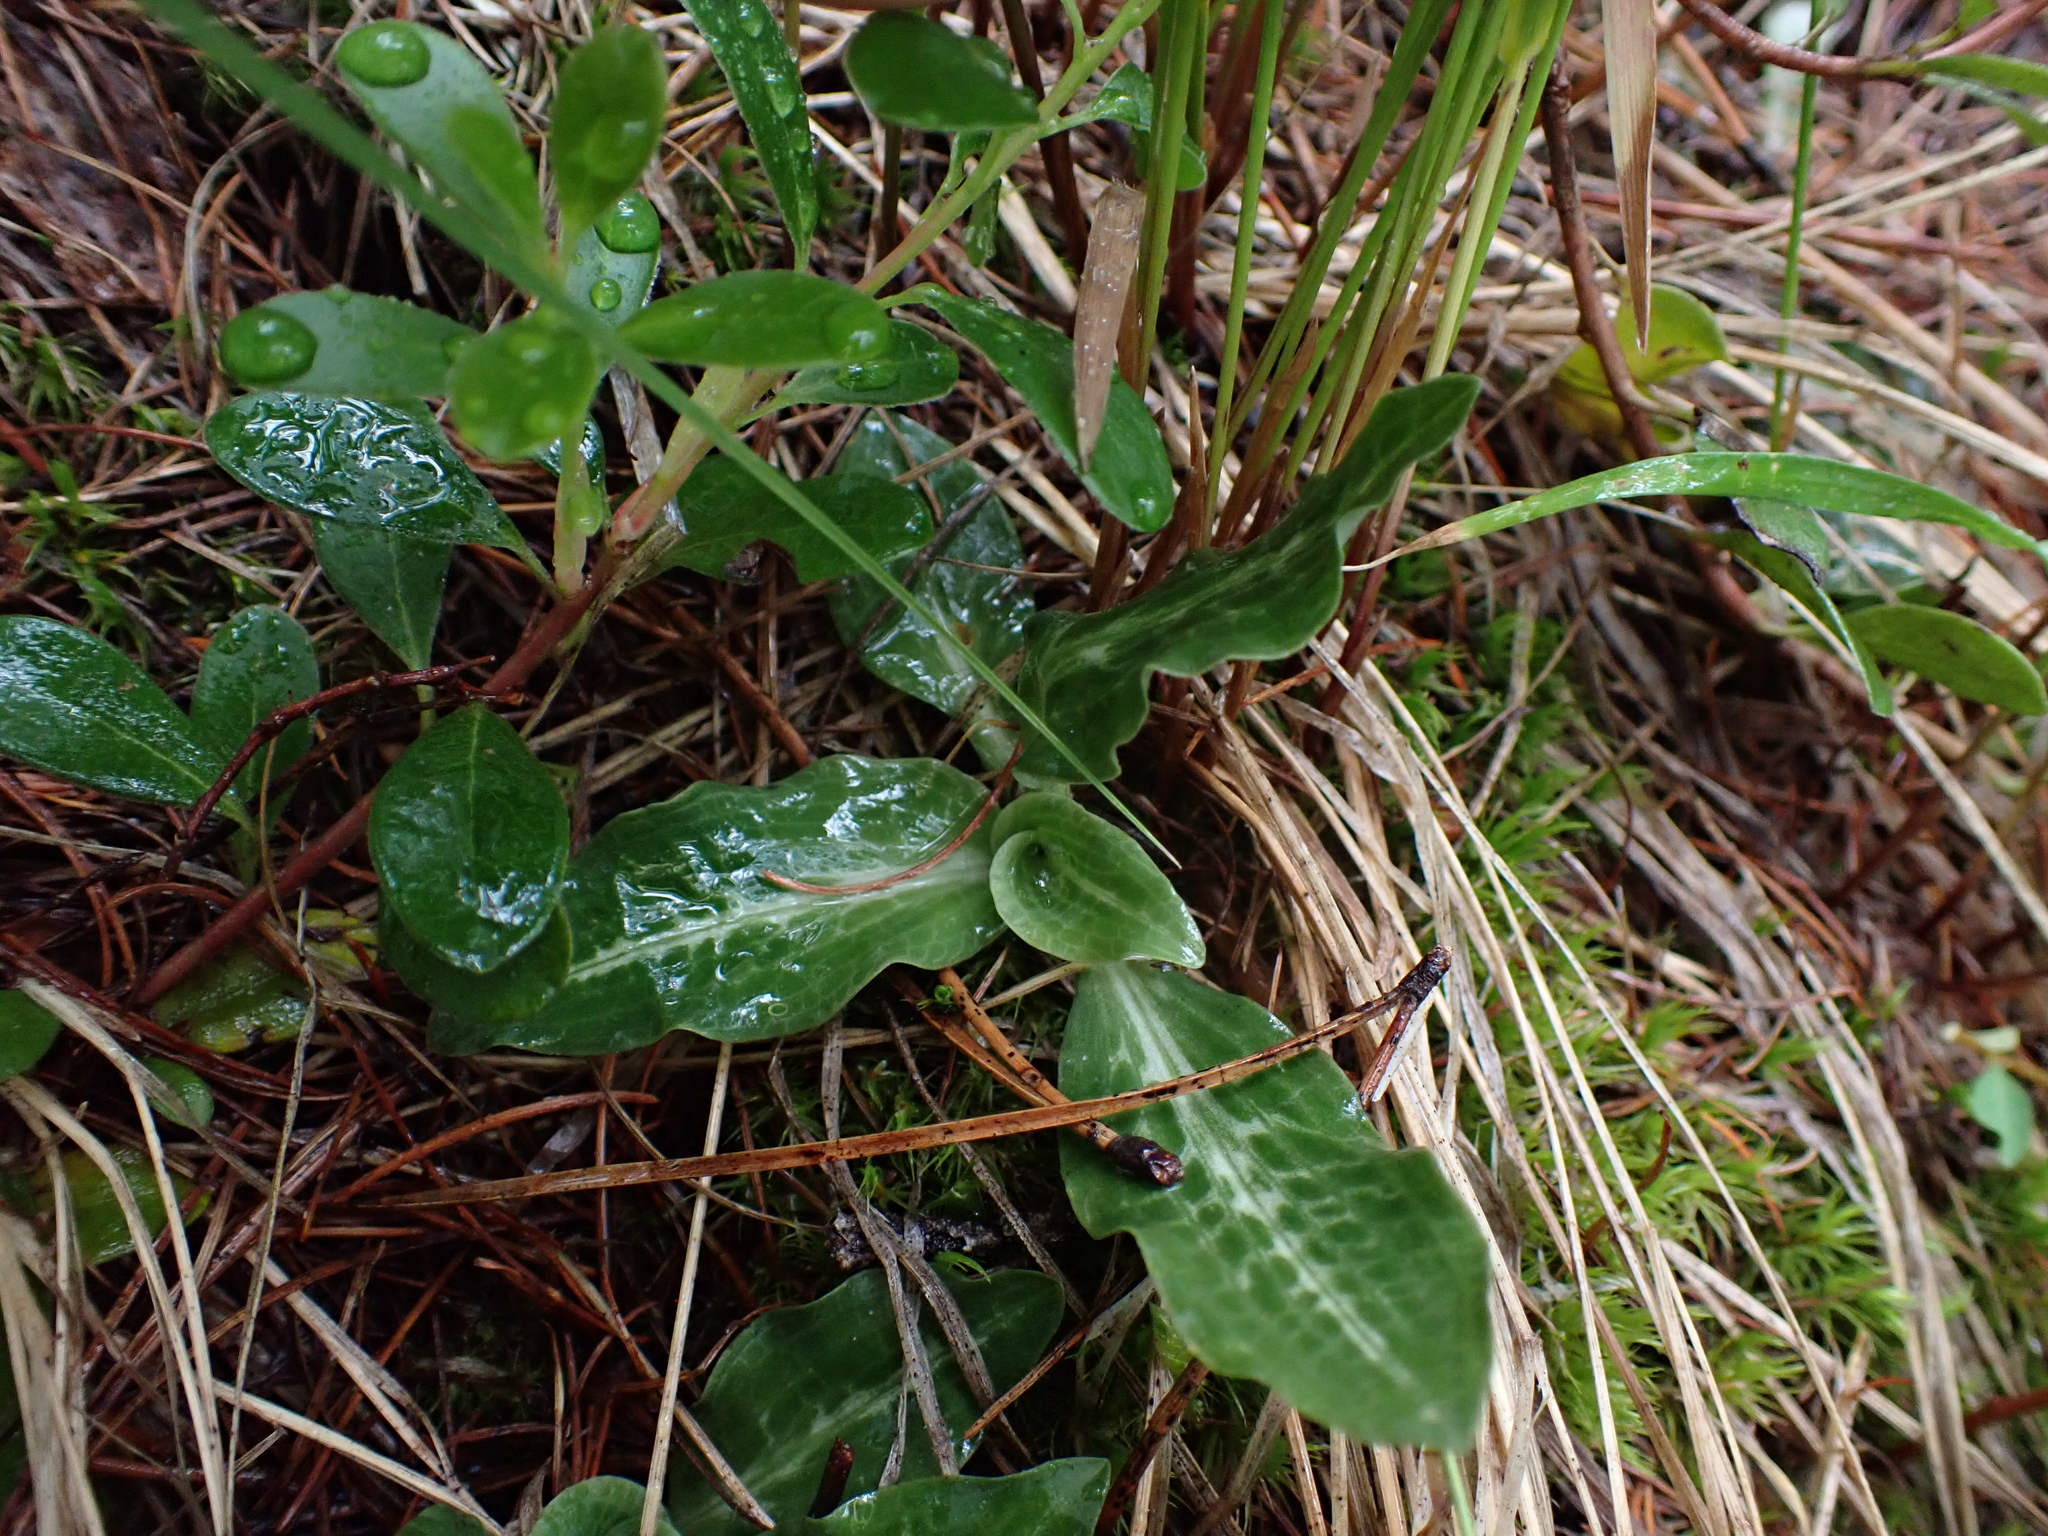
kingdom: Plantae
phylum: Tracheophyta
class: Liliopsida
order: Asparagales
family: Orchidaceae
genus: Goodyera
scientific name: Goodyera oblongifolia
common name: Giant rattlesnake-plantain
